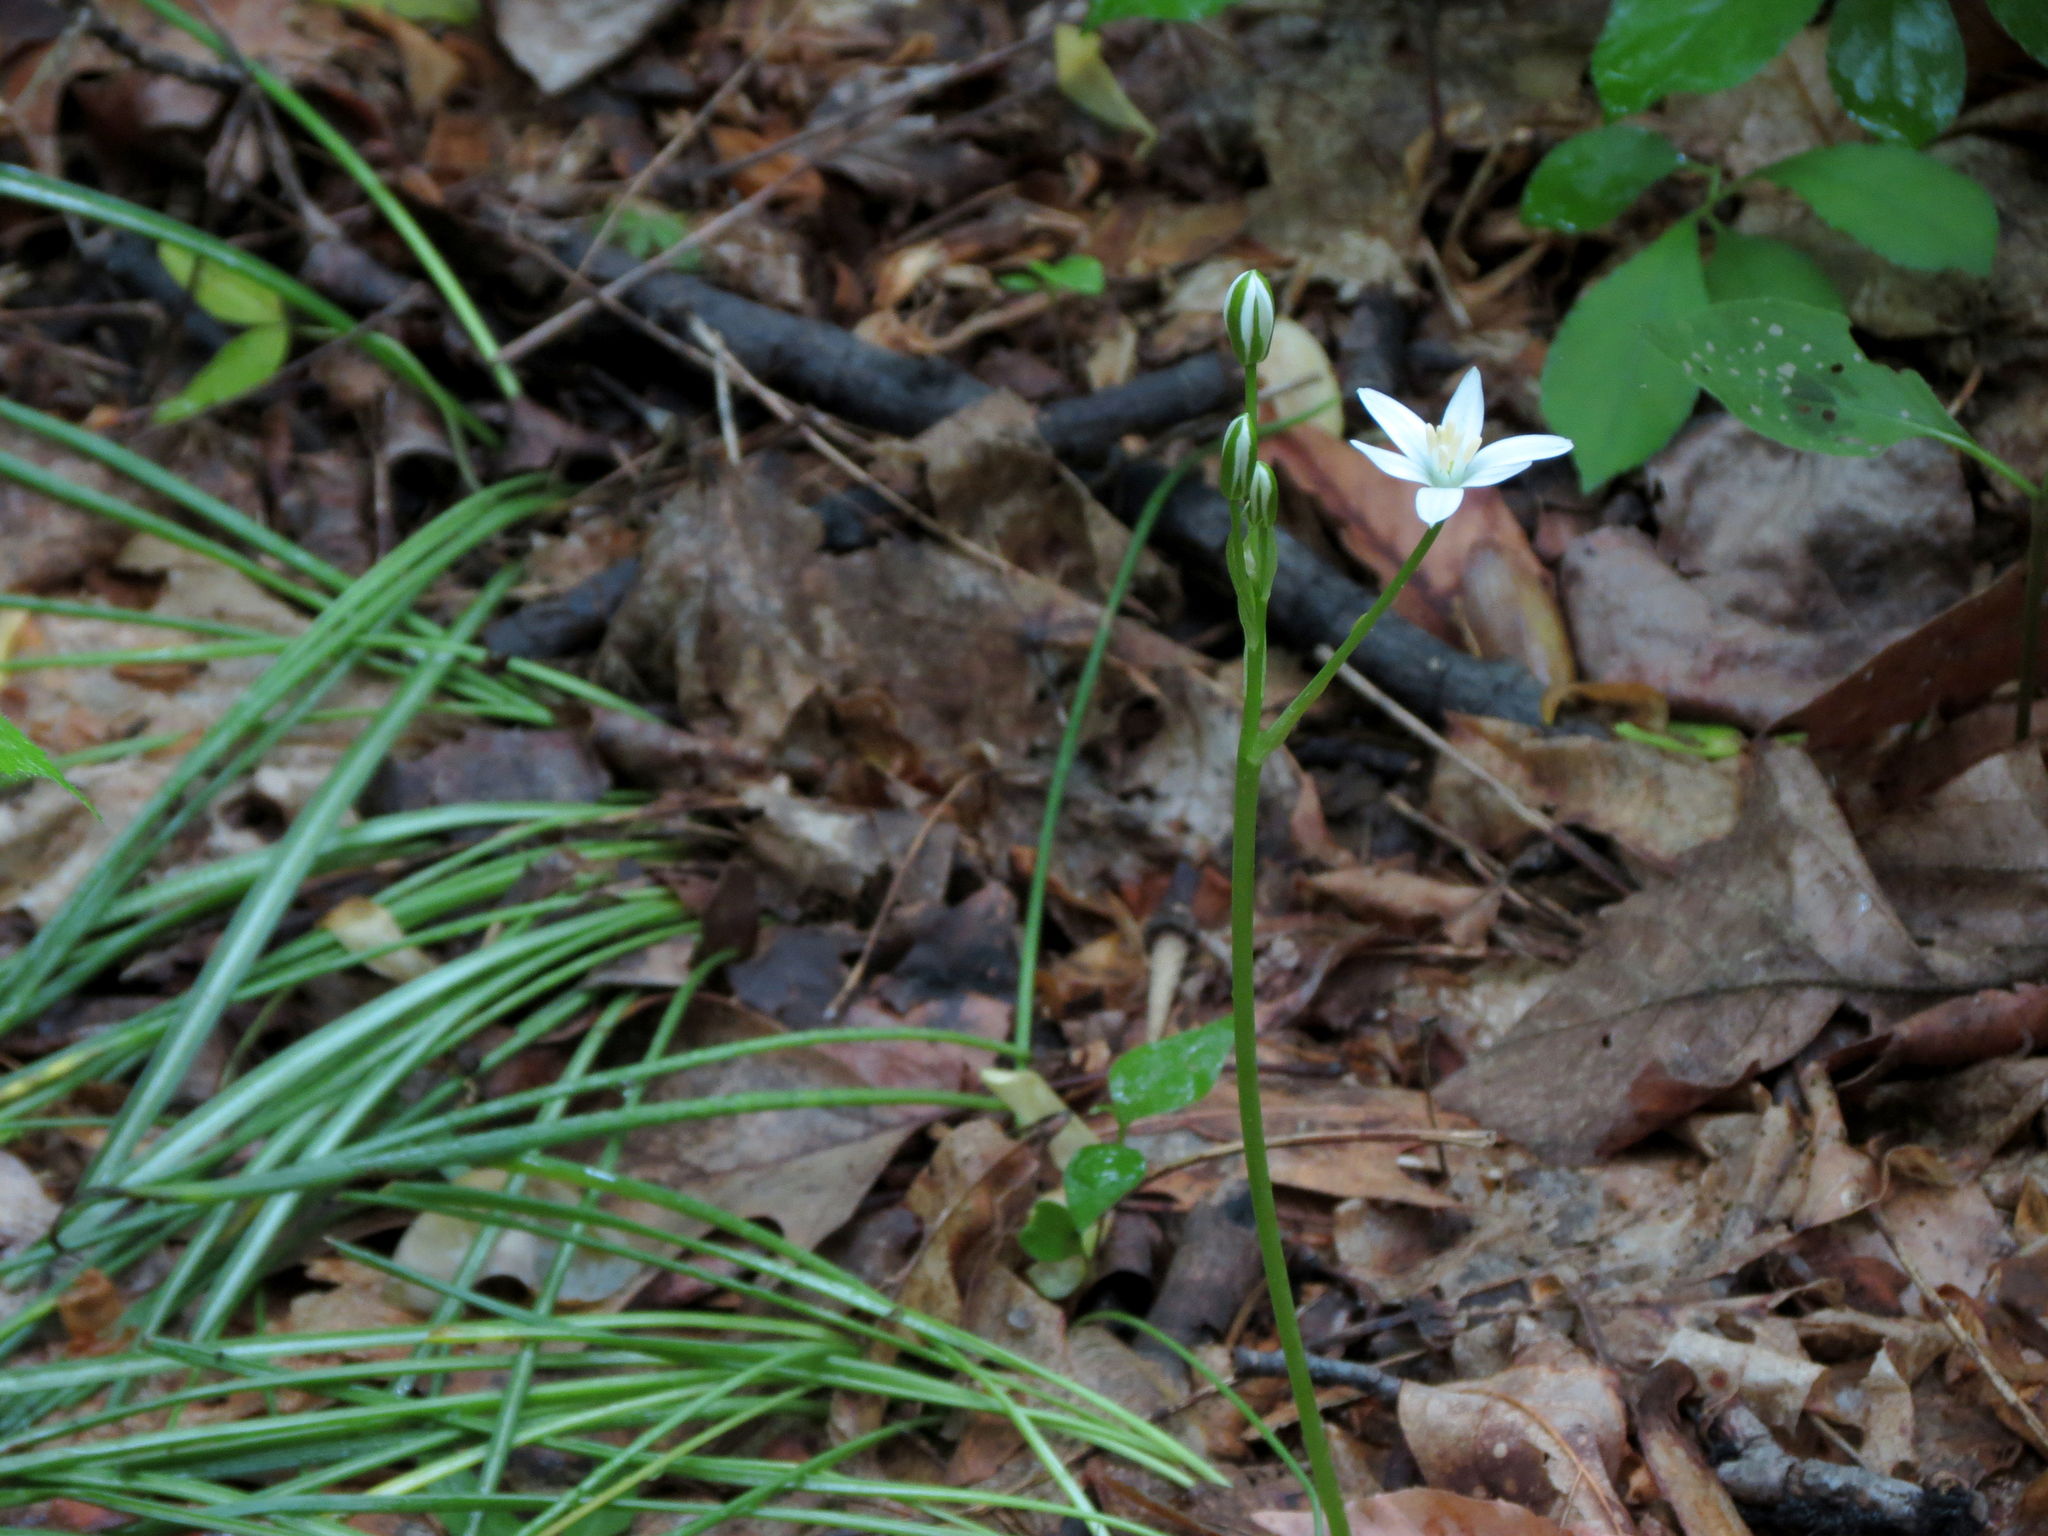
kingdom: Plantae
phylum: Tracheophyta
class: Liliopsida
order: Asparagales
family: Asparagaceae
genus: Ornithogalum
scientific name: Ornithogalum umbellatum
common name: Garden star-of-bethlehem
